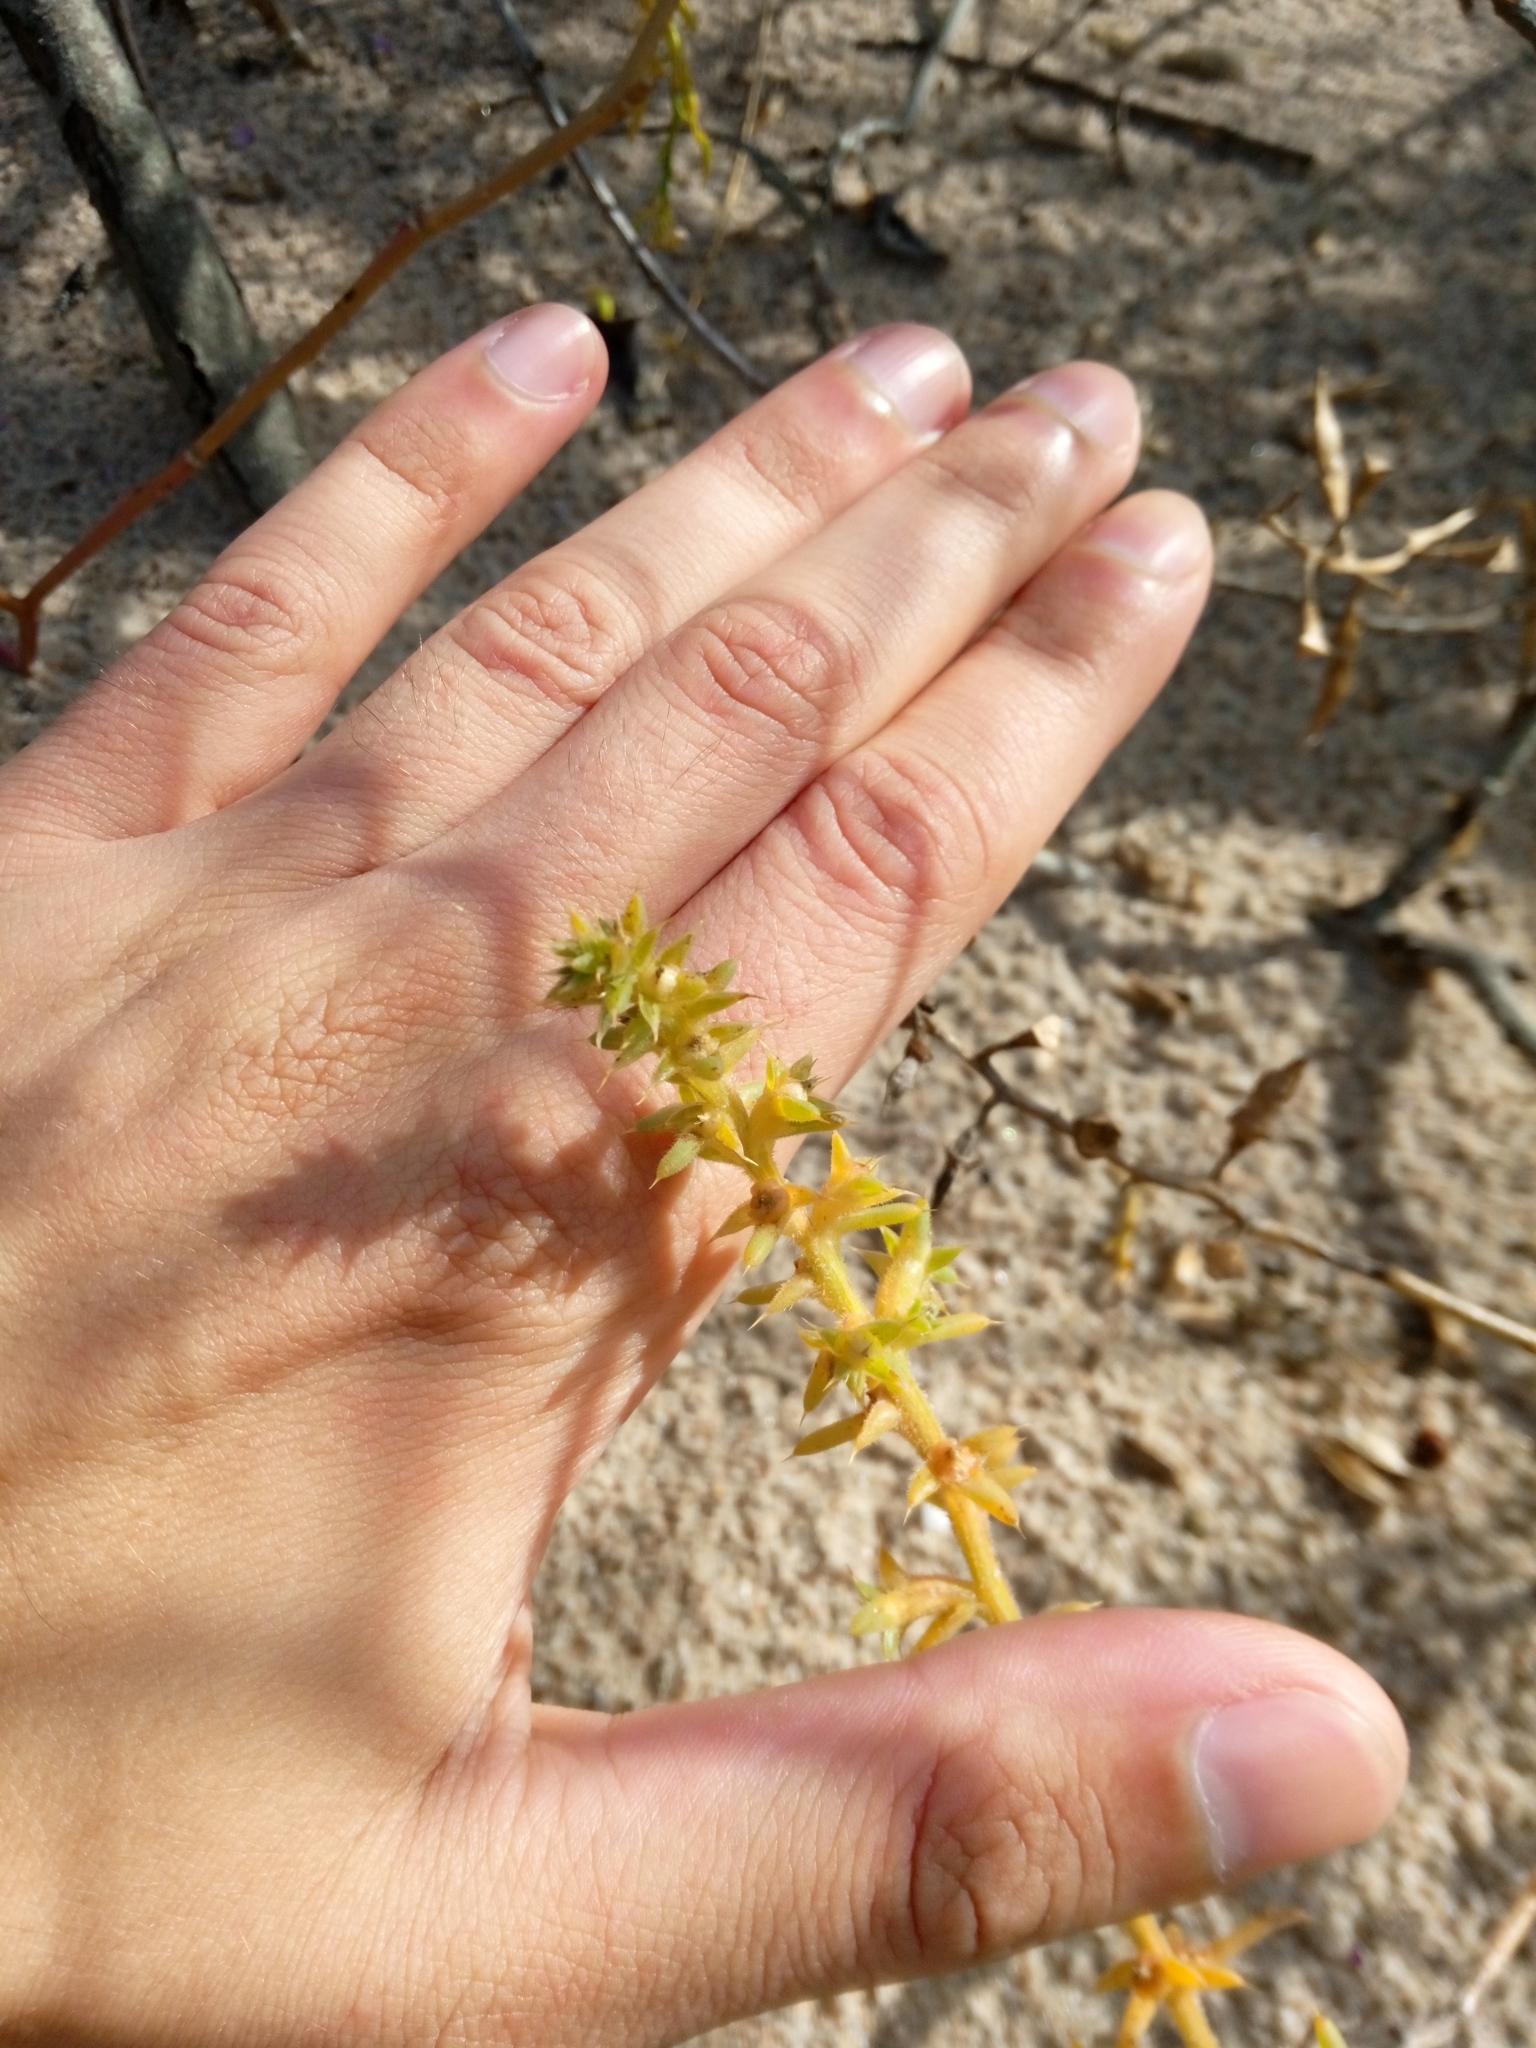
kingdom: Plantae
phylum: Tracheophyta
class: Magnoliopsida
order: Caryophyllales
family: Amaranthaceae
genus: Salsola
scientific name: Salsola kali
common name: Saltwort
